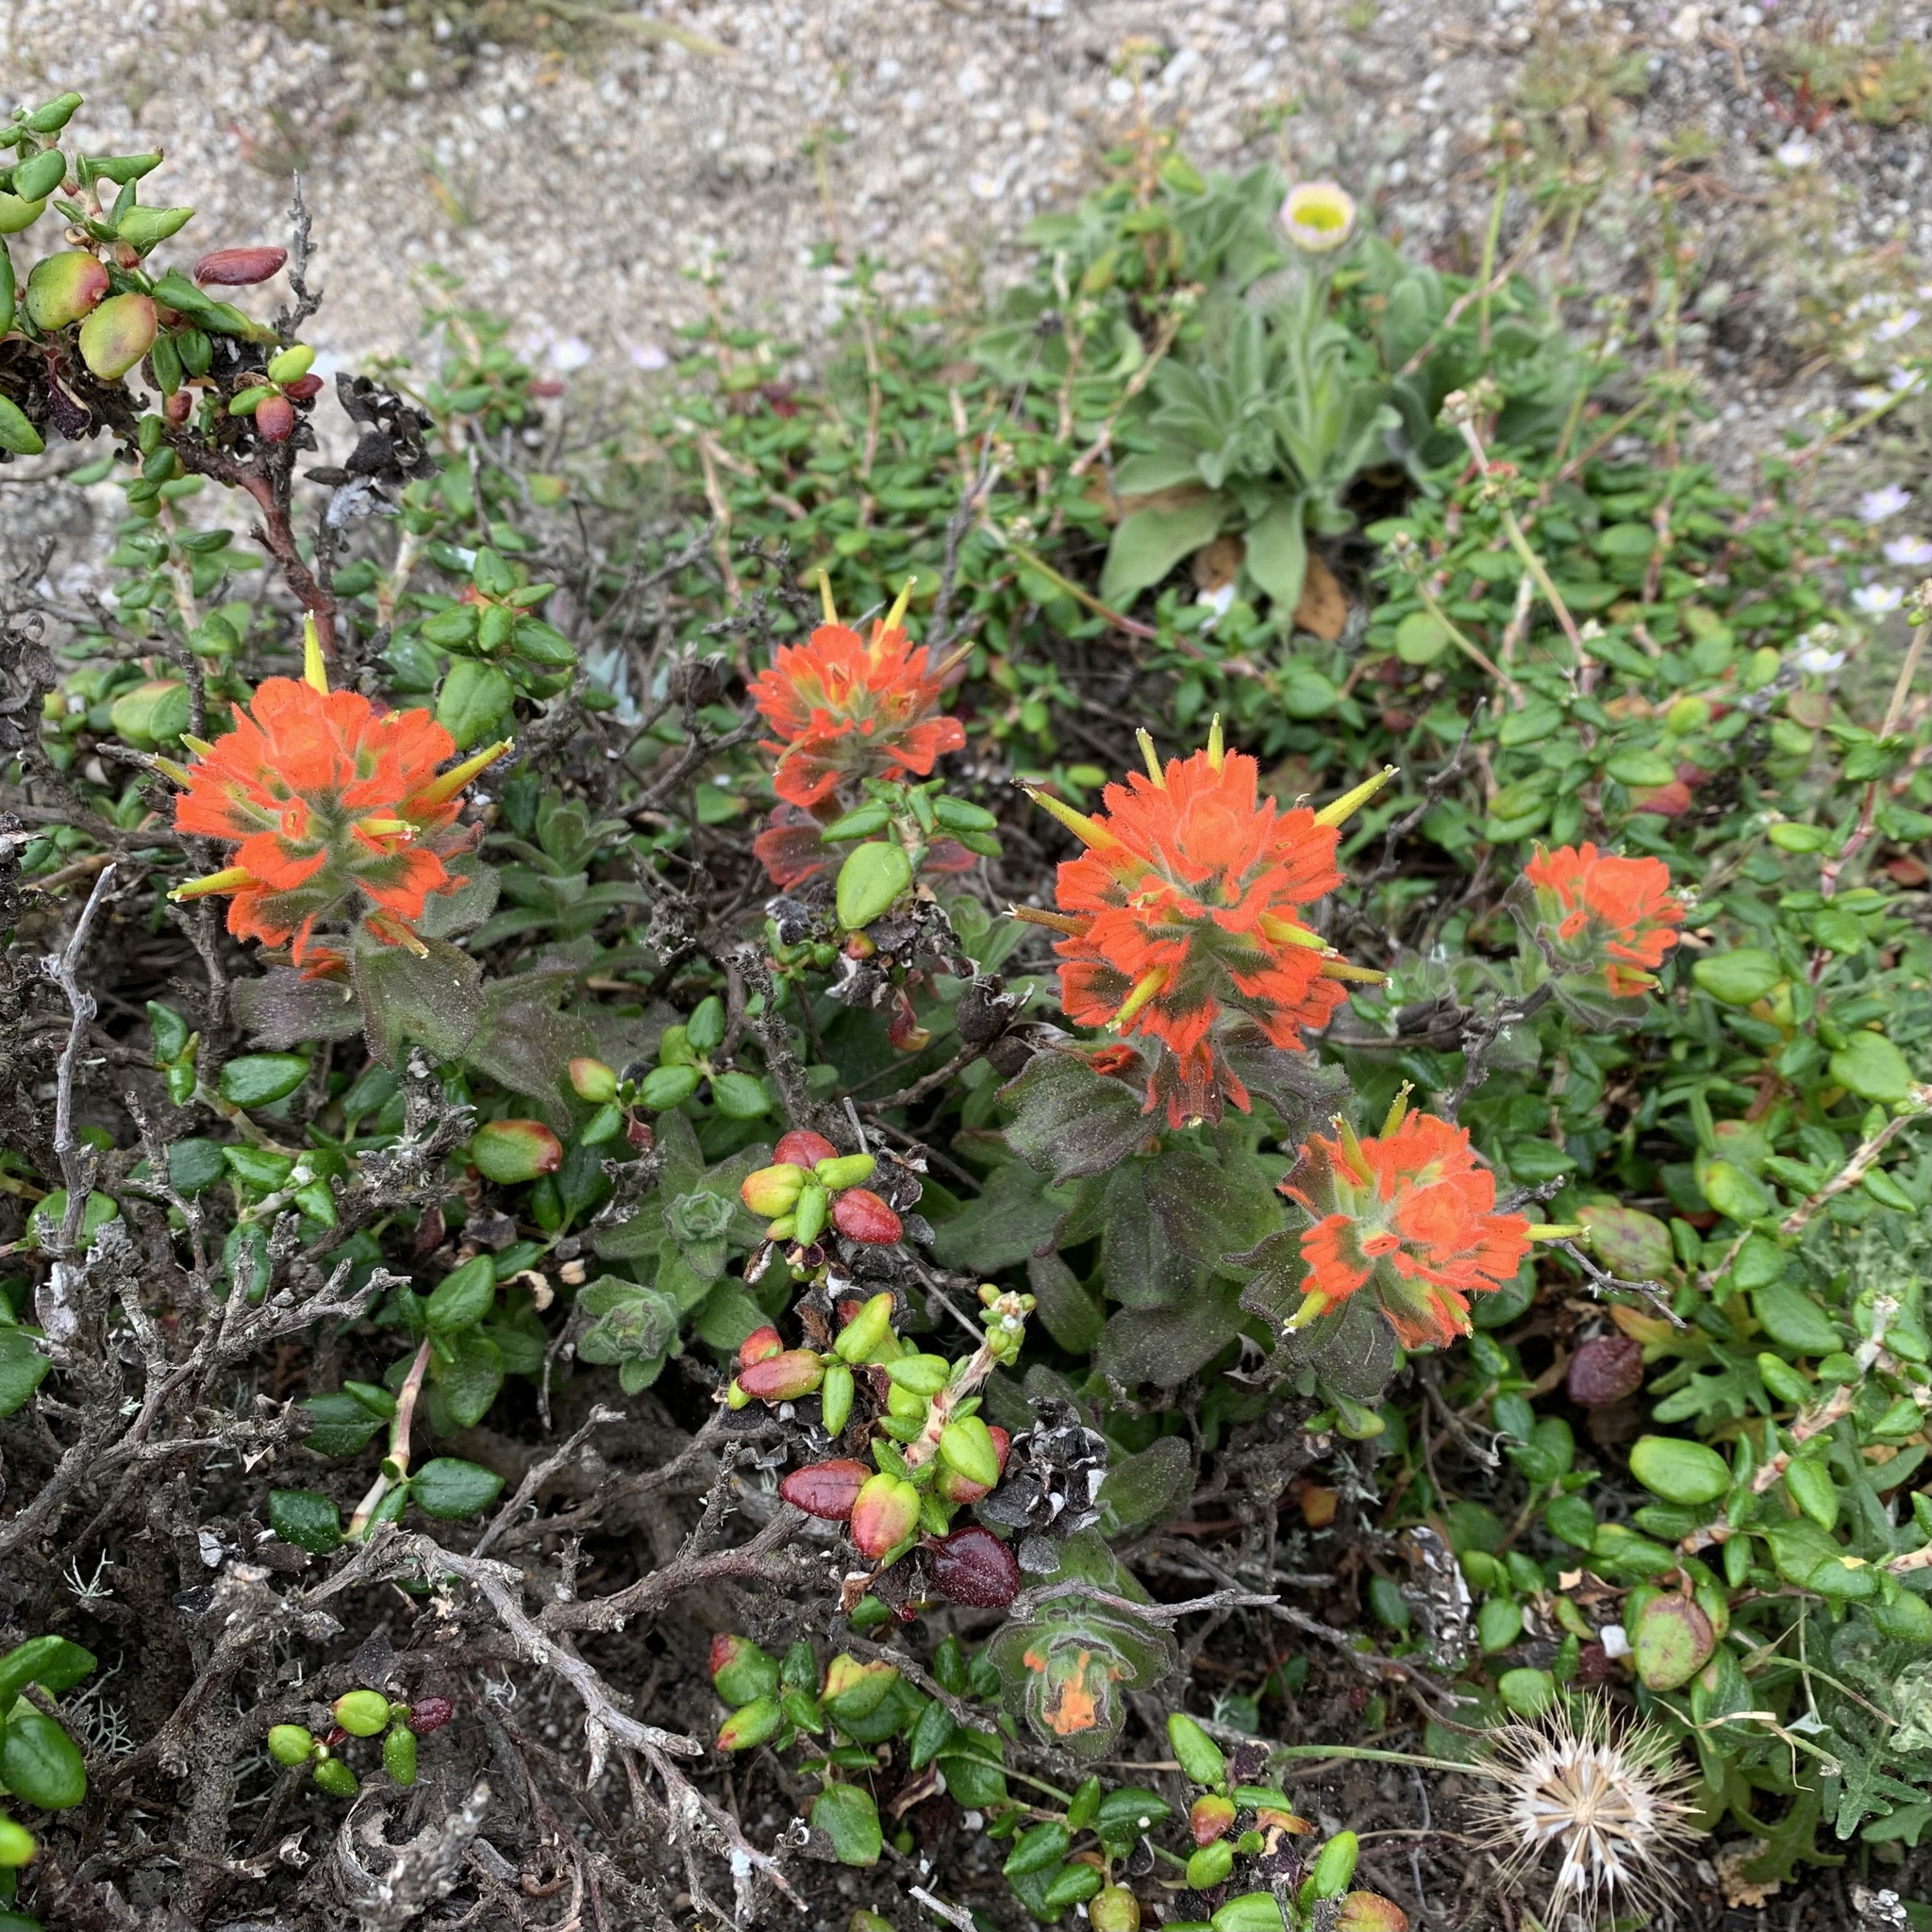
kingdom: Plantae
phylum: Tracheophyta
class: Magnoliopsida
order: Lamiales
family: Orobanchaceae
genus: Castilleja
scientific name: Castilleja latifolia
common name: Monterey indian paintbrush
